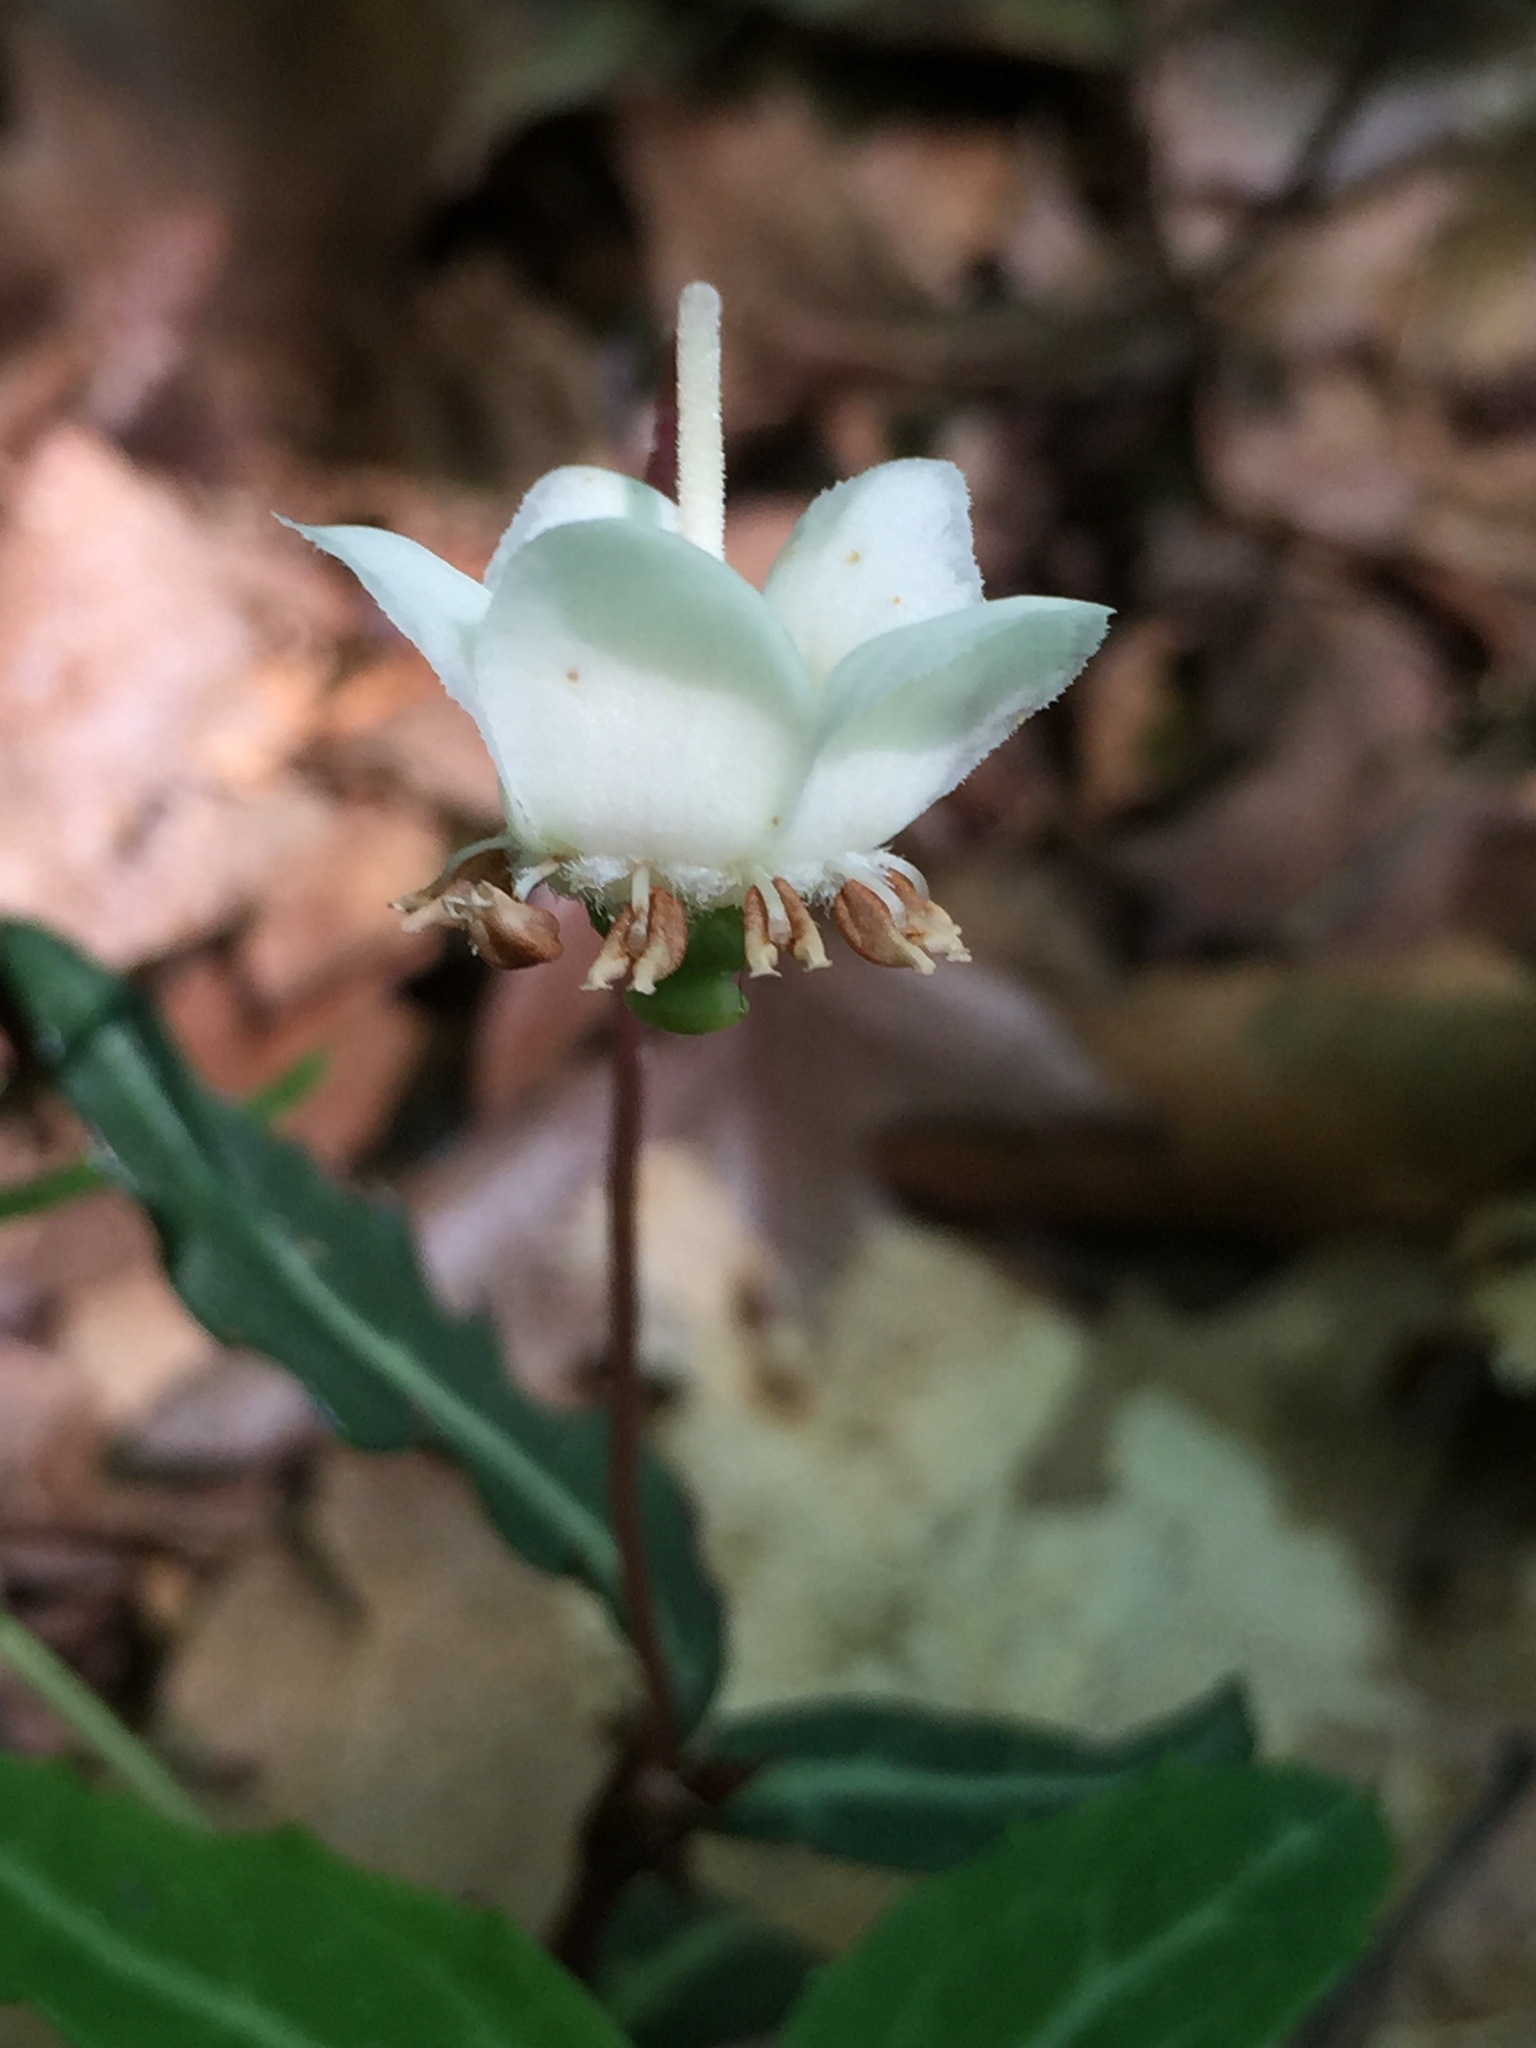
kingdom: Plantae
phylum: Tracheophyta
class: Magnoliopsida
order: Ericales
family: Ericaceae
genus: Chimaphila
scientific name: Chimaphila maculata
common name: Spotted pipsissewa
